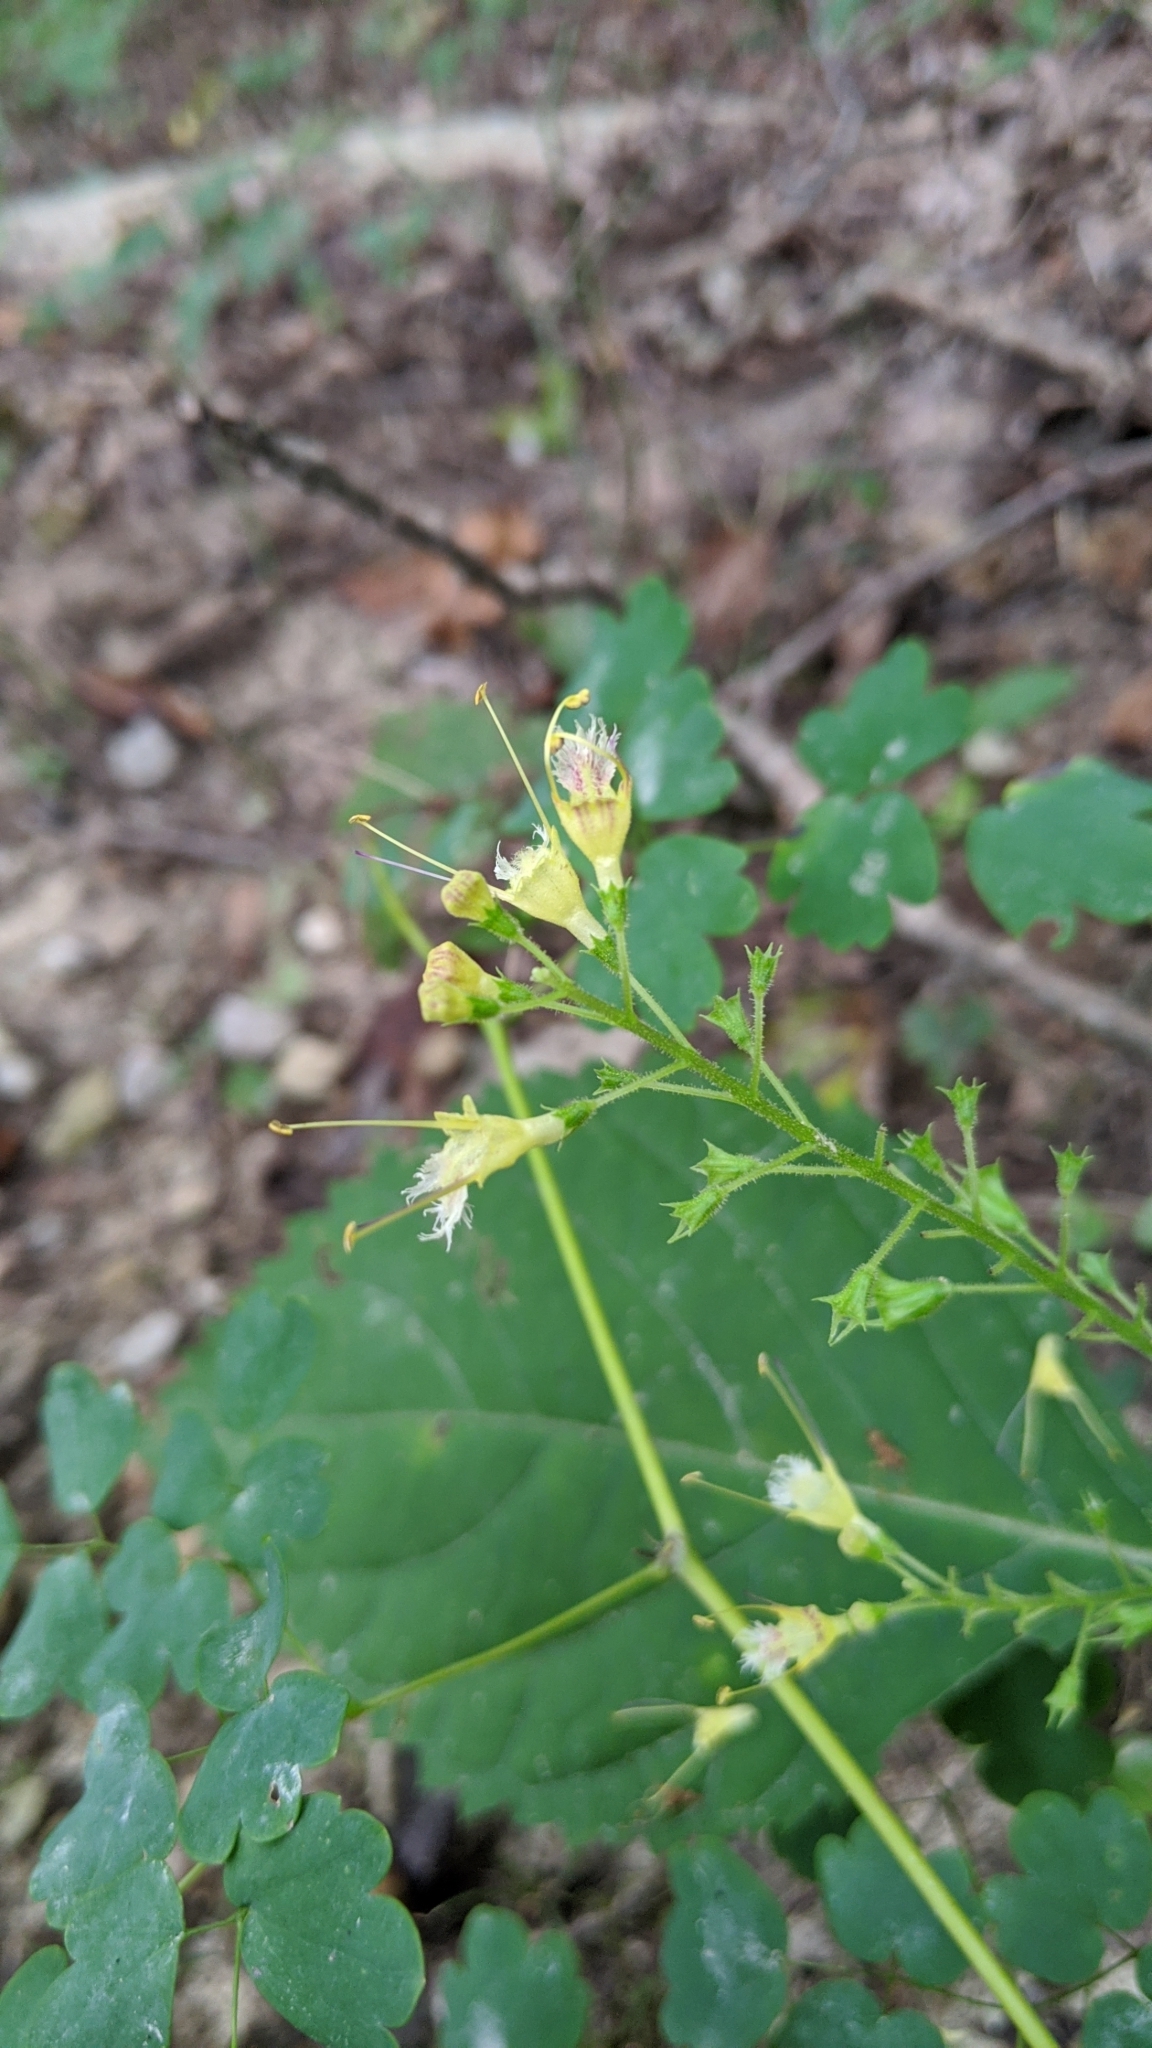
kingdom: Plantae
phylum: Tracheophyta
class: Magnoliopsida
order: Lamiales
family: Lamiaceae
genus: Collinsonia
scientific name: Collinsonia canadensis
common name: Northern horsebalm
